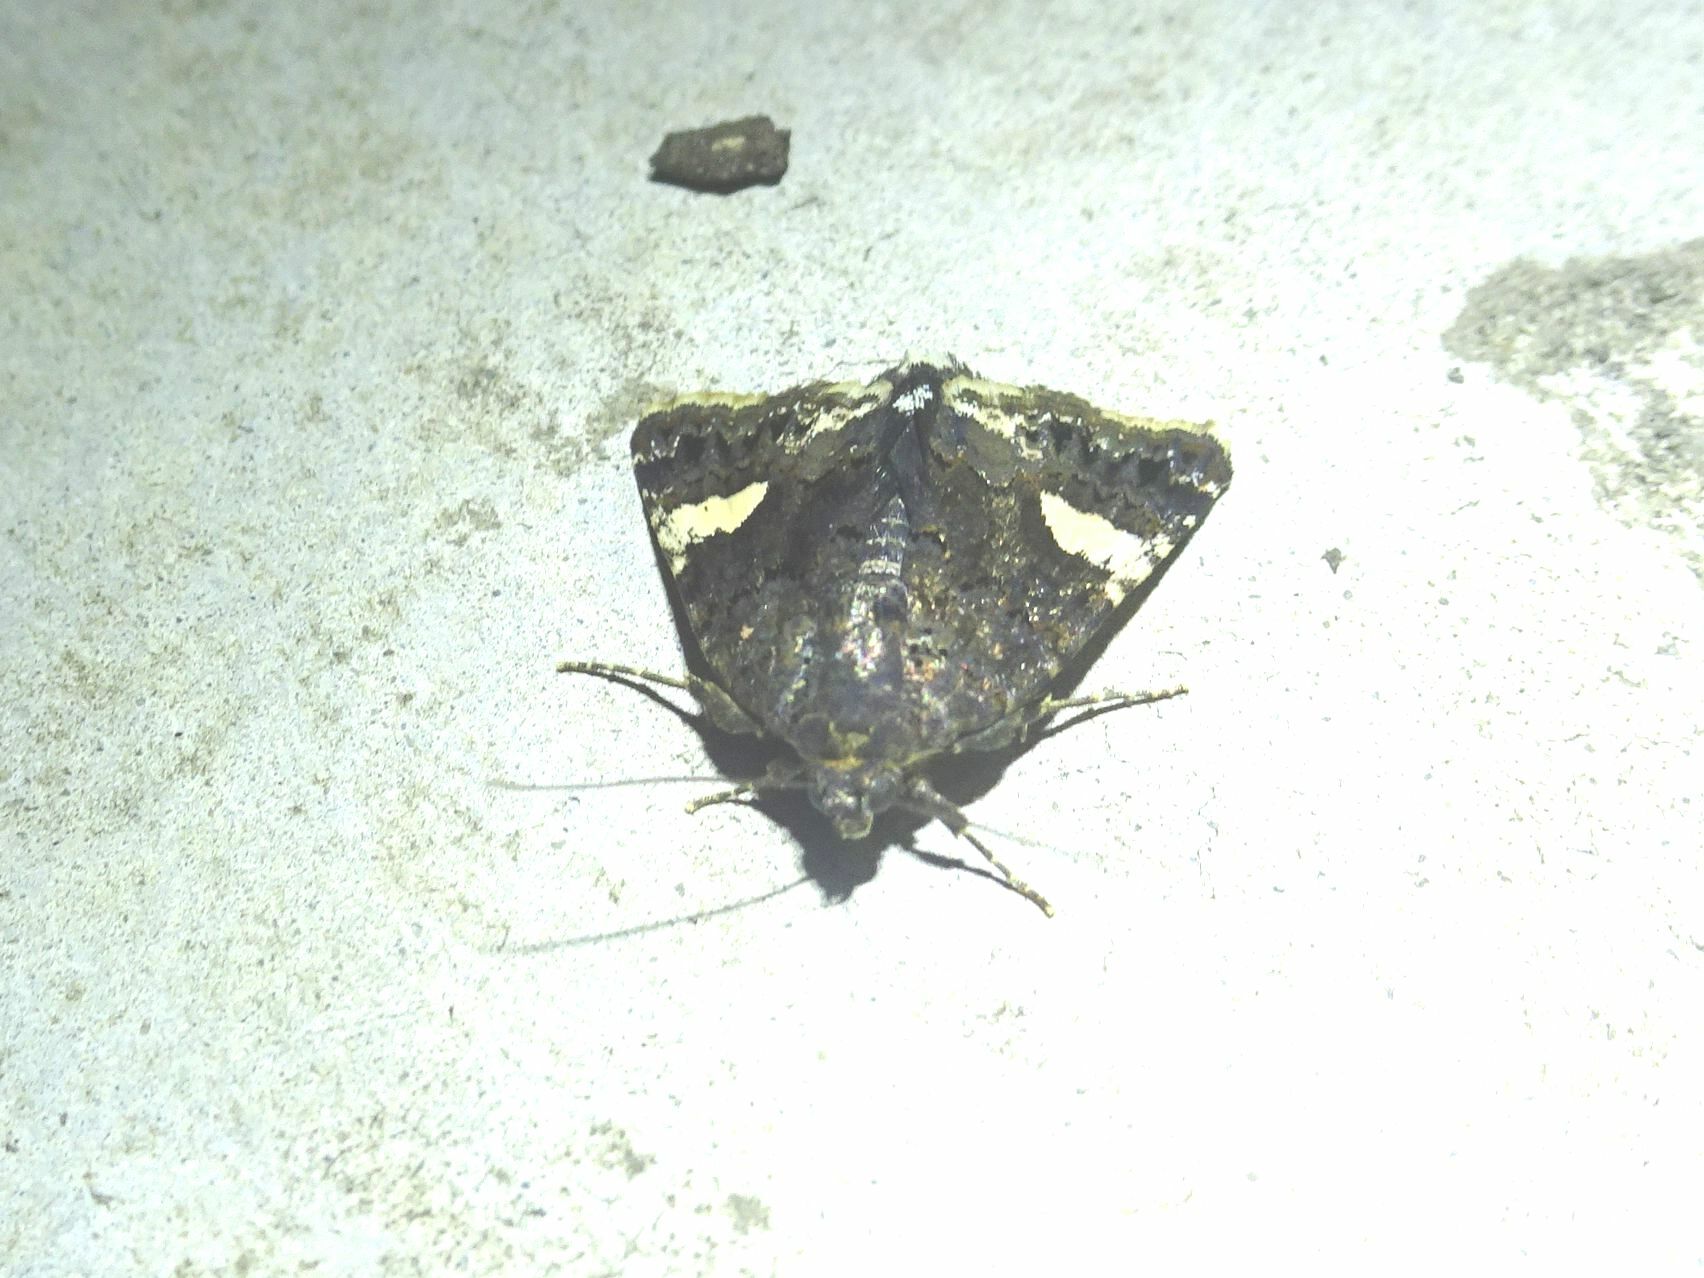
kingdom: Animalia
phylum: Arthropoda
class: Insecta
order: Lepidoptera
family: Erebidae
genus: Tyta
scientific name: Tyta luctuosa
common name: Four-spotted
